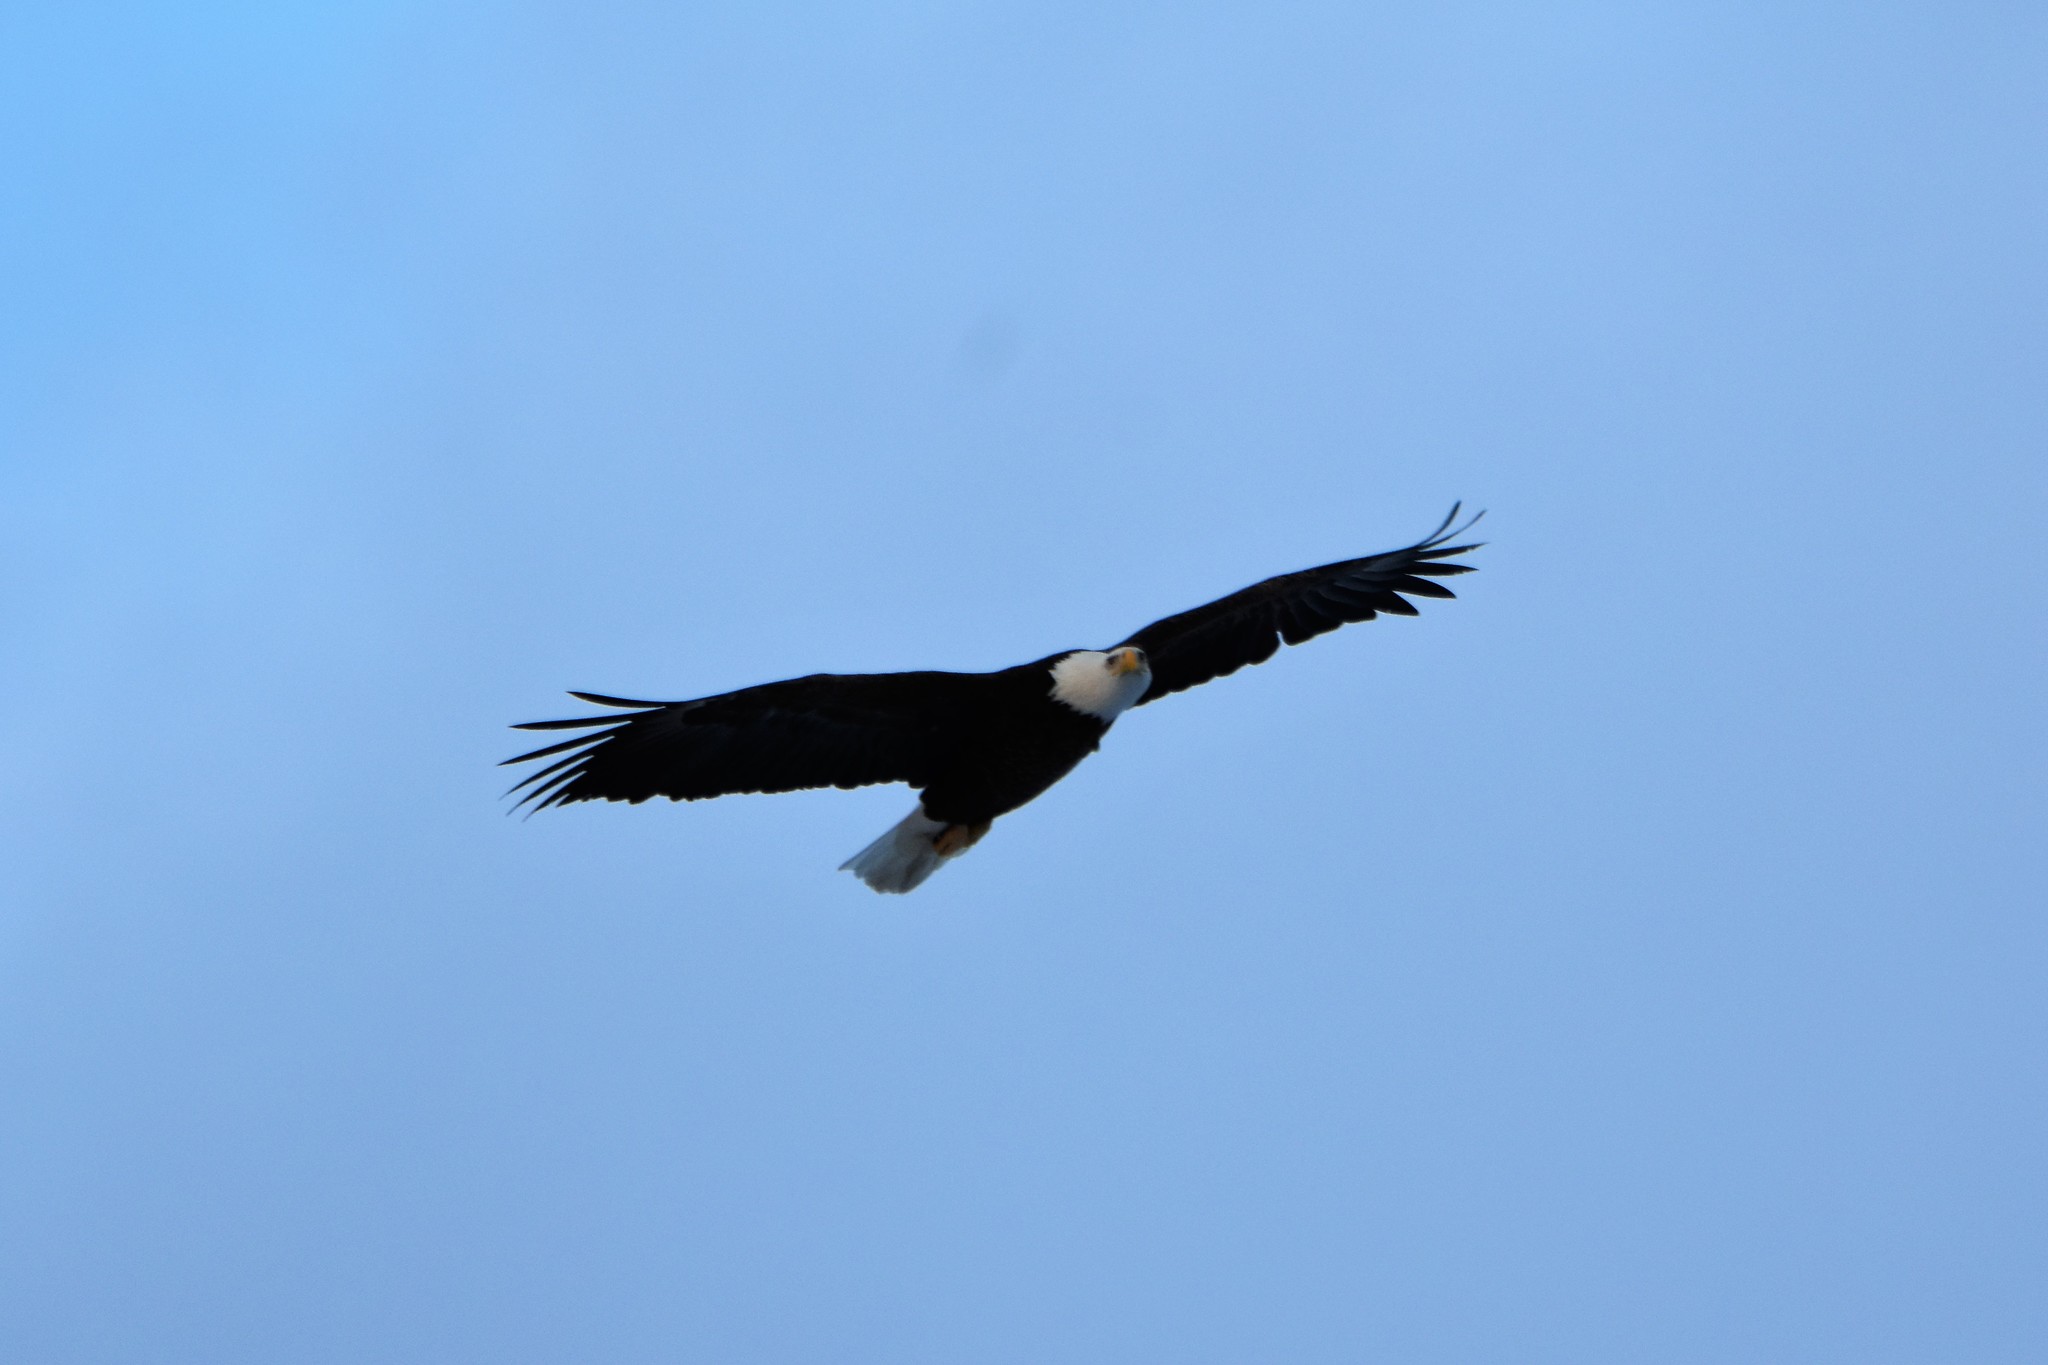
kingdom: Animalia
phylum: Chordata
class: Aves
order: Accipitriformes
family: Accipitridae
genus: Haliaeetus
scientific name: Haliaeetus leucocephalus
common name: Bald eagle
